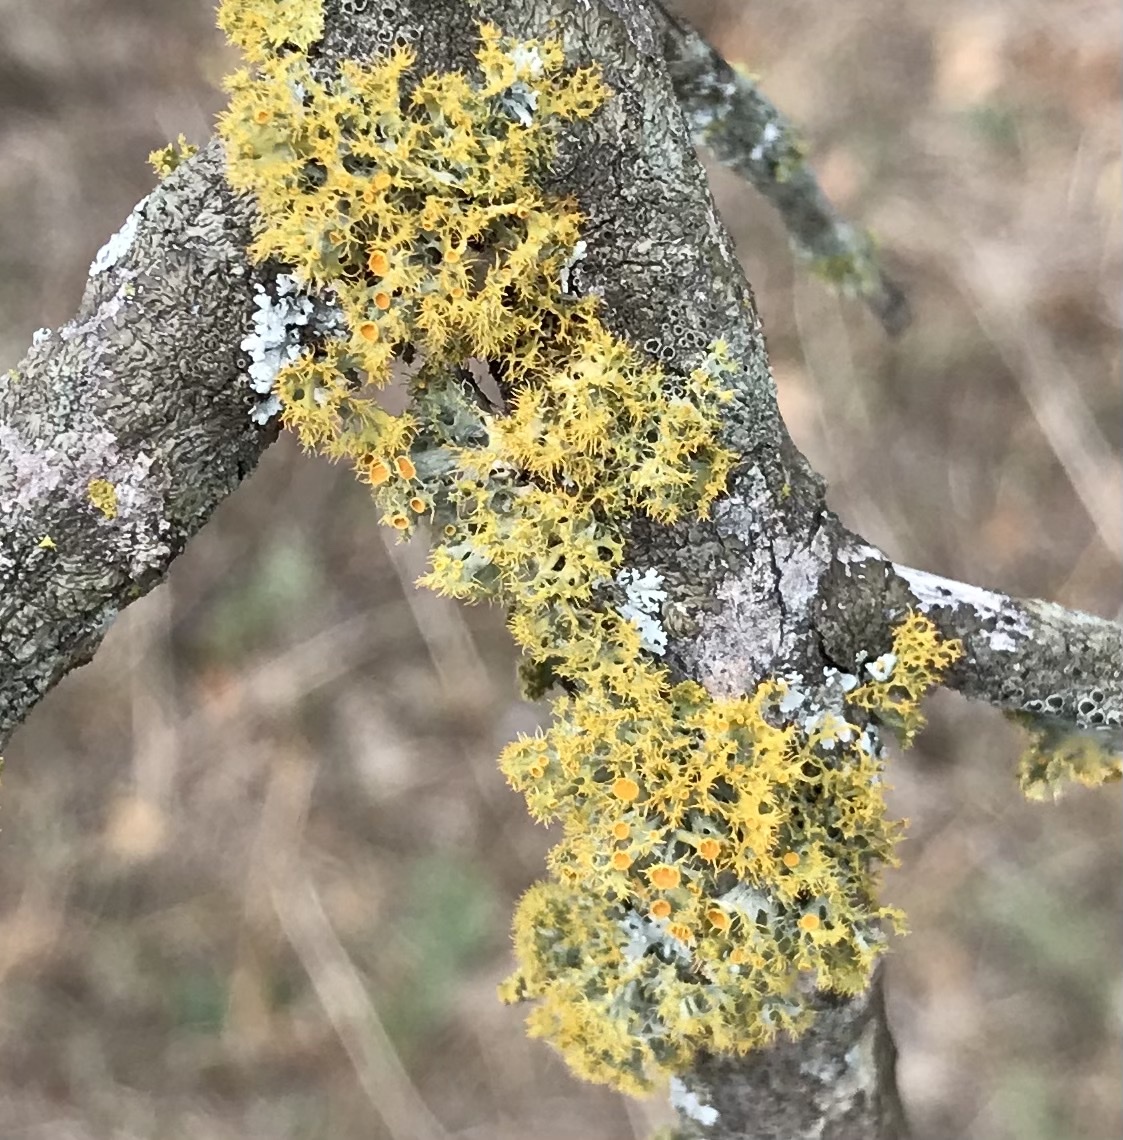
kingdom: Fungi
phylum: Ascomycota
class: Lecanoromycetes
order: Teloschistales
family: Teloschistaceae
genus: Niorma
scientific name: Niorma chrysophthalma
